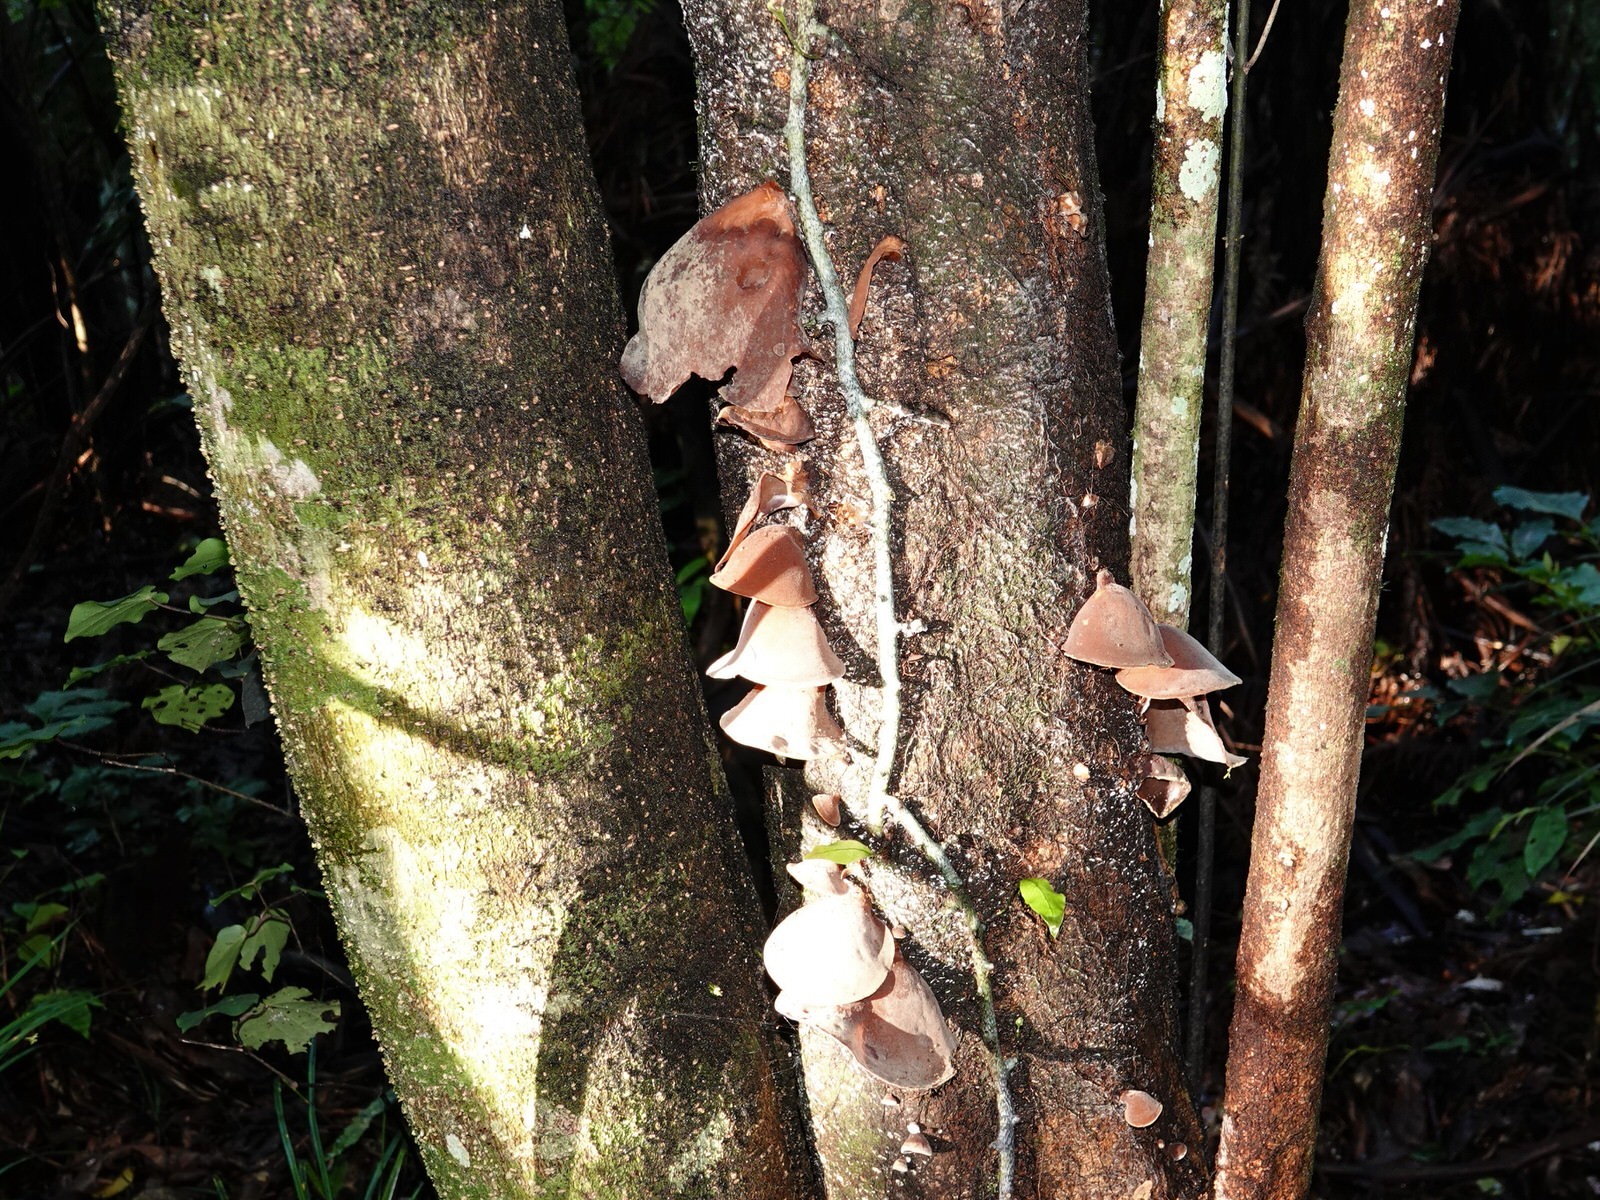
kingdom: Fungi
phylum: Basidiomycota
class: Agaricomycetes
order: Auriculariales
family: Auriculariaceae
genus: Auricularia
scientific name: Auricularia cornea
